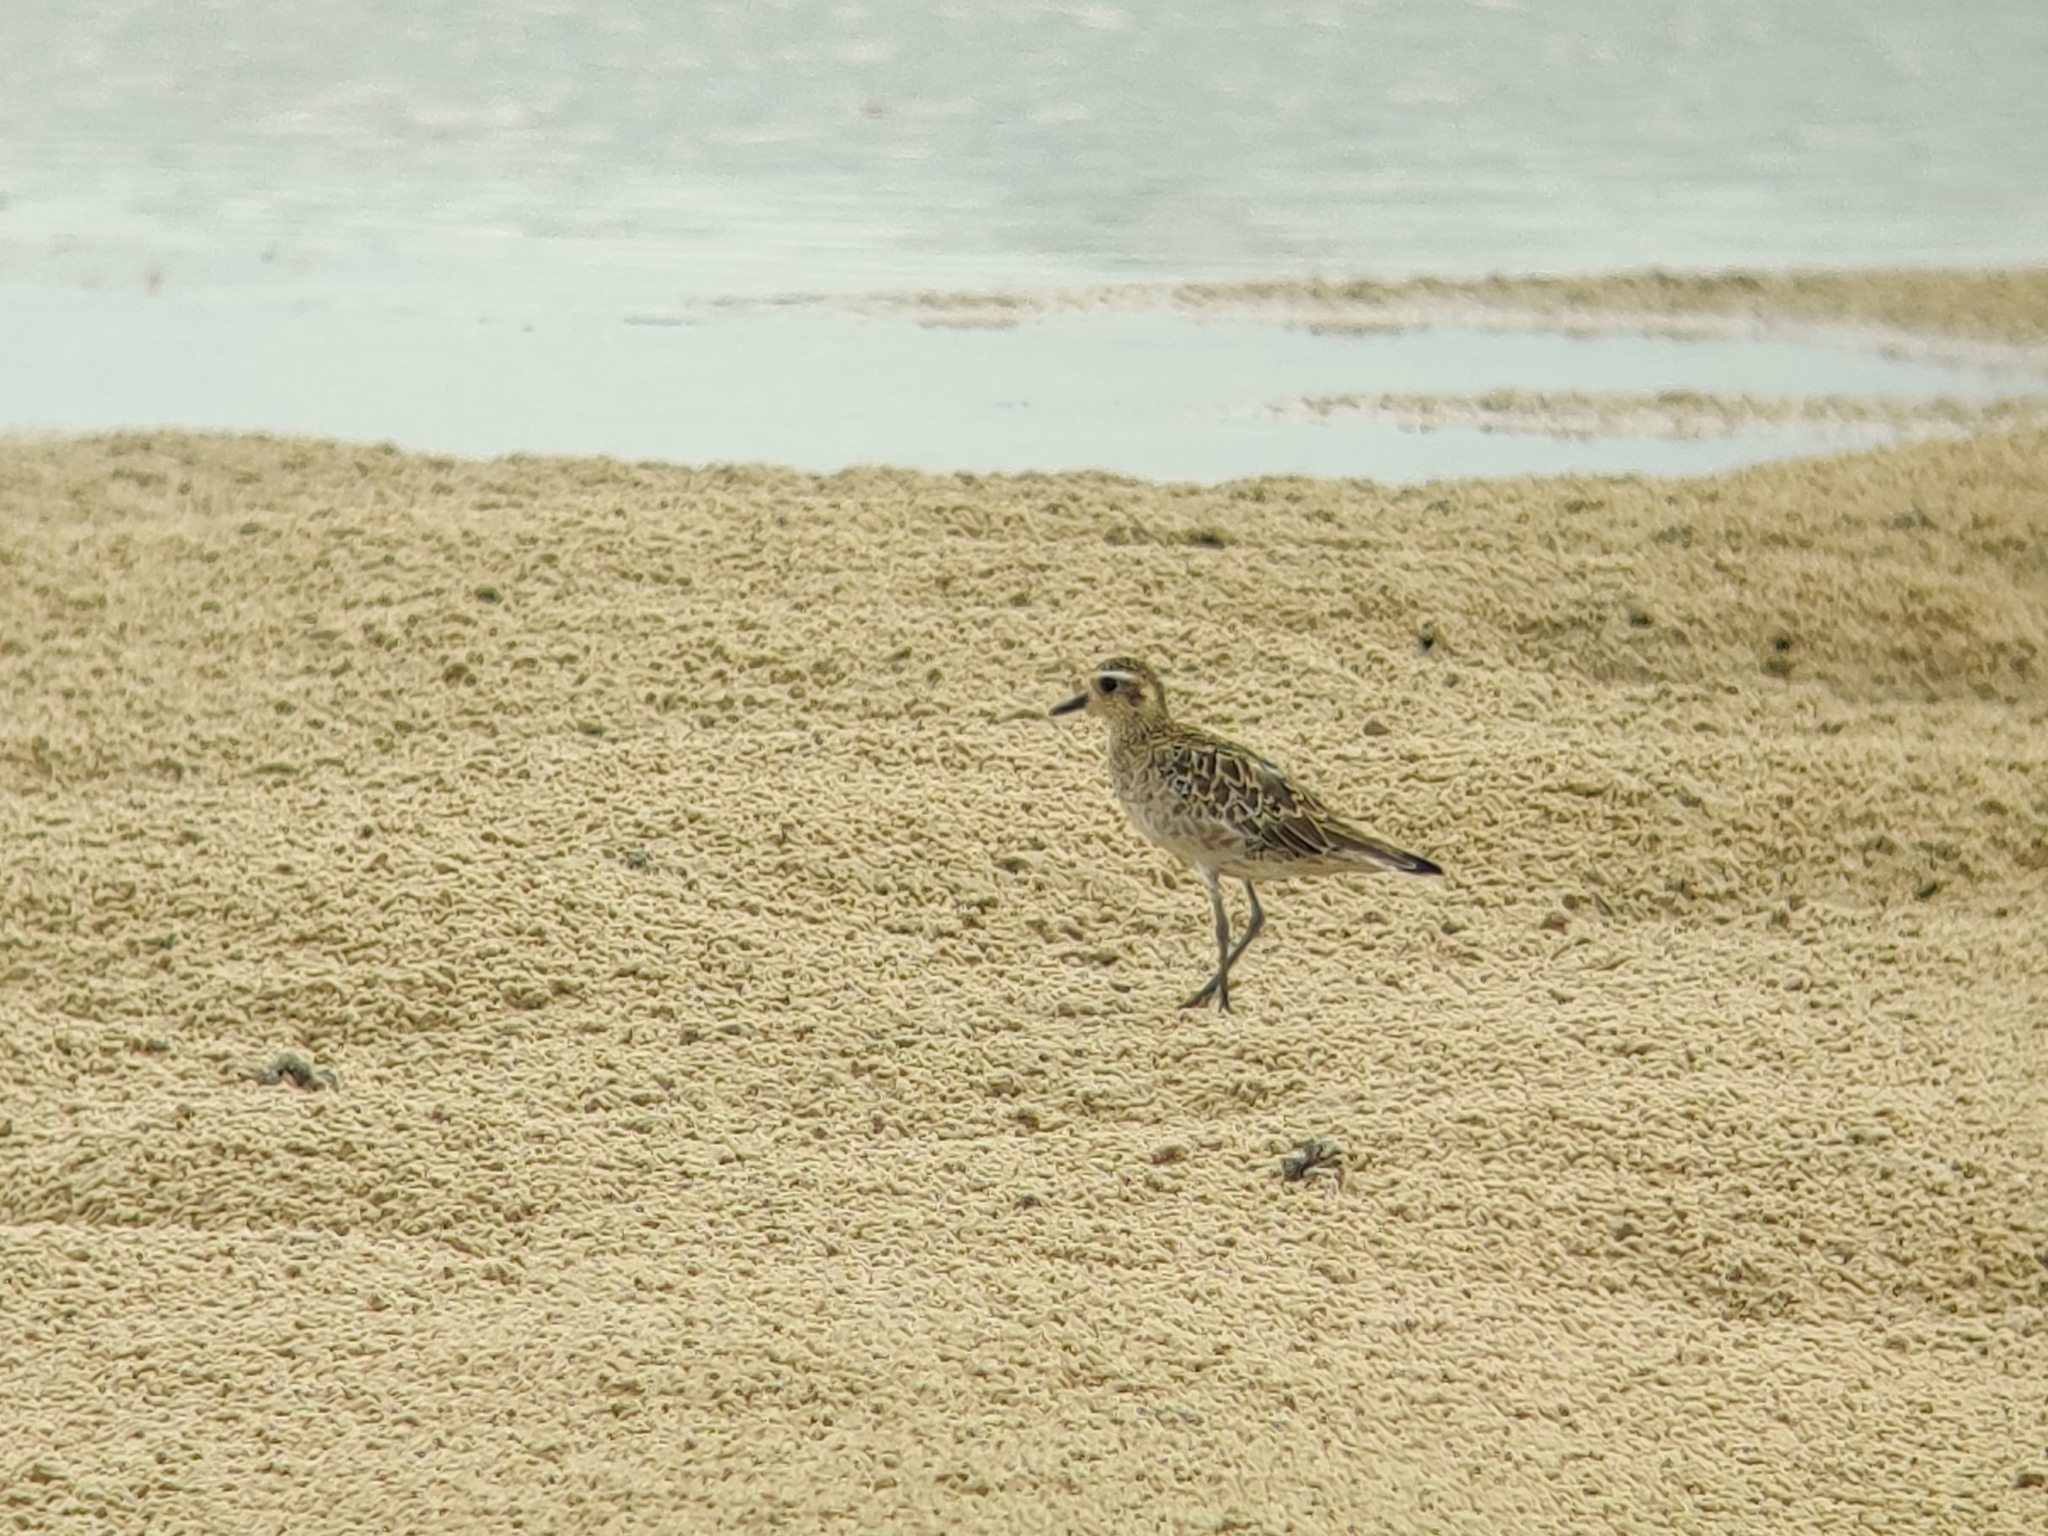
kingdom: Animalia
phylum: Chordata
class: Aves
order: Charadriiformes
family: Charadriidae
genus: Pluvialis
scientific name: Pluvialis fulva
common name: Pacific golden plover
